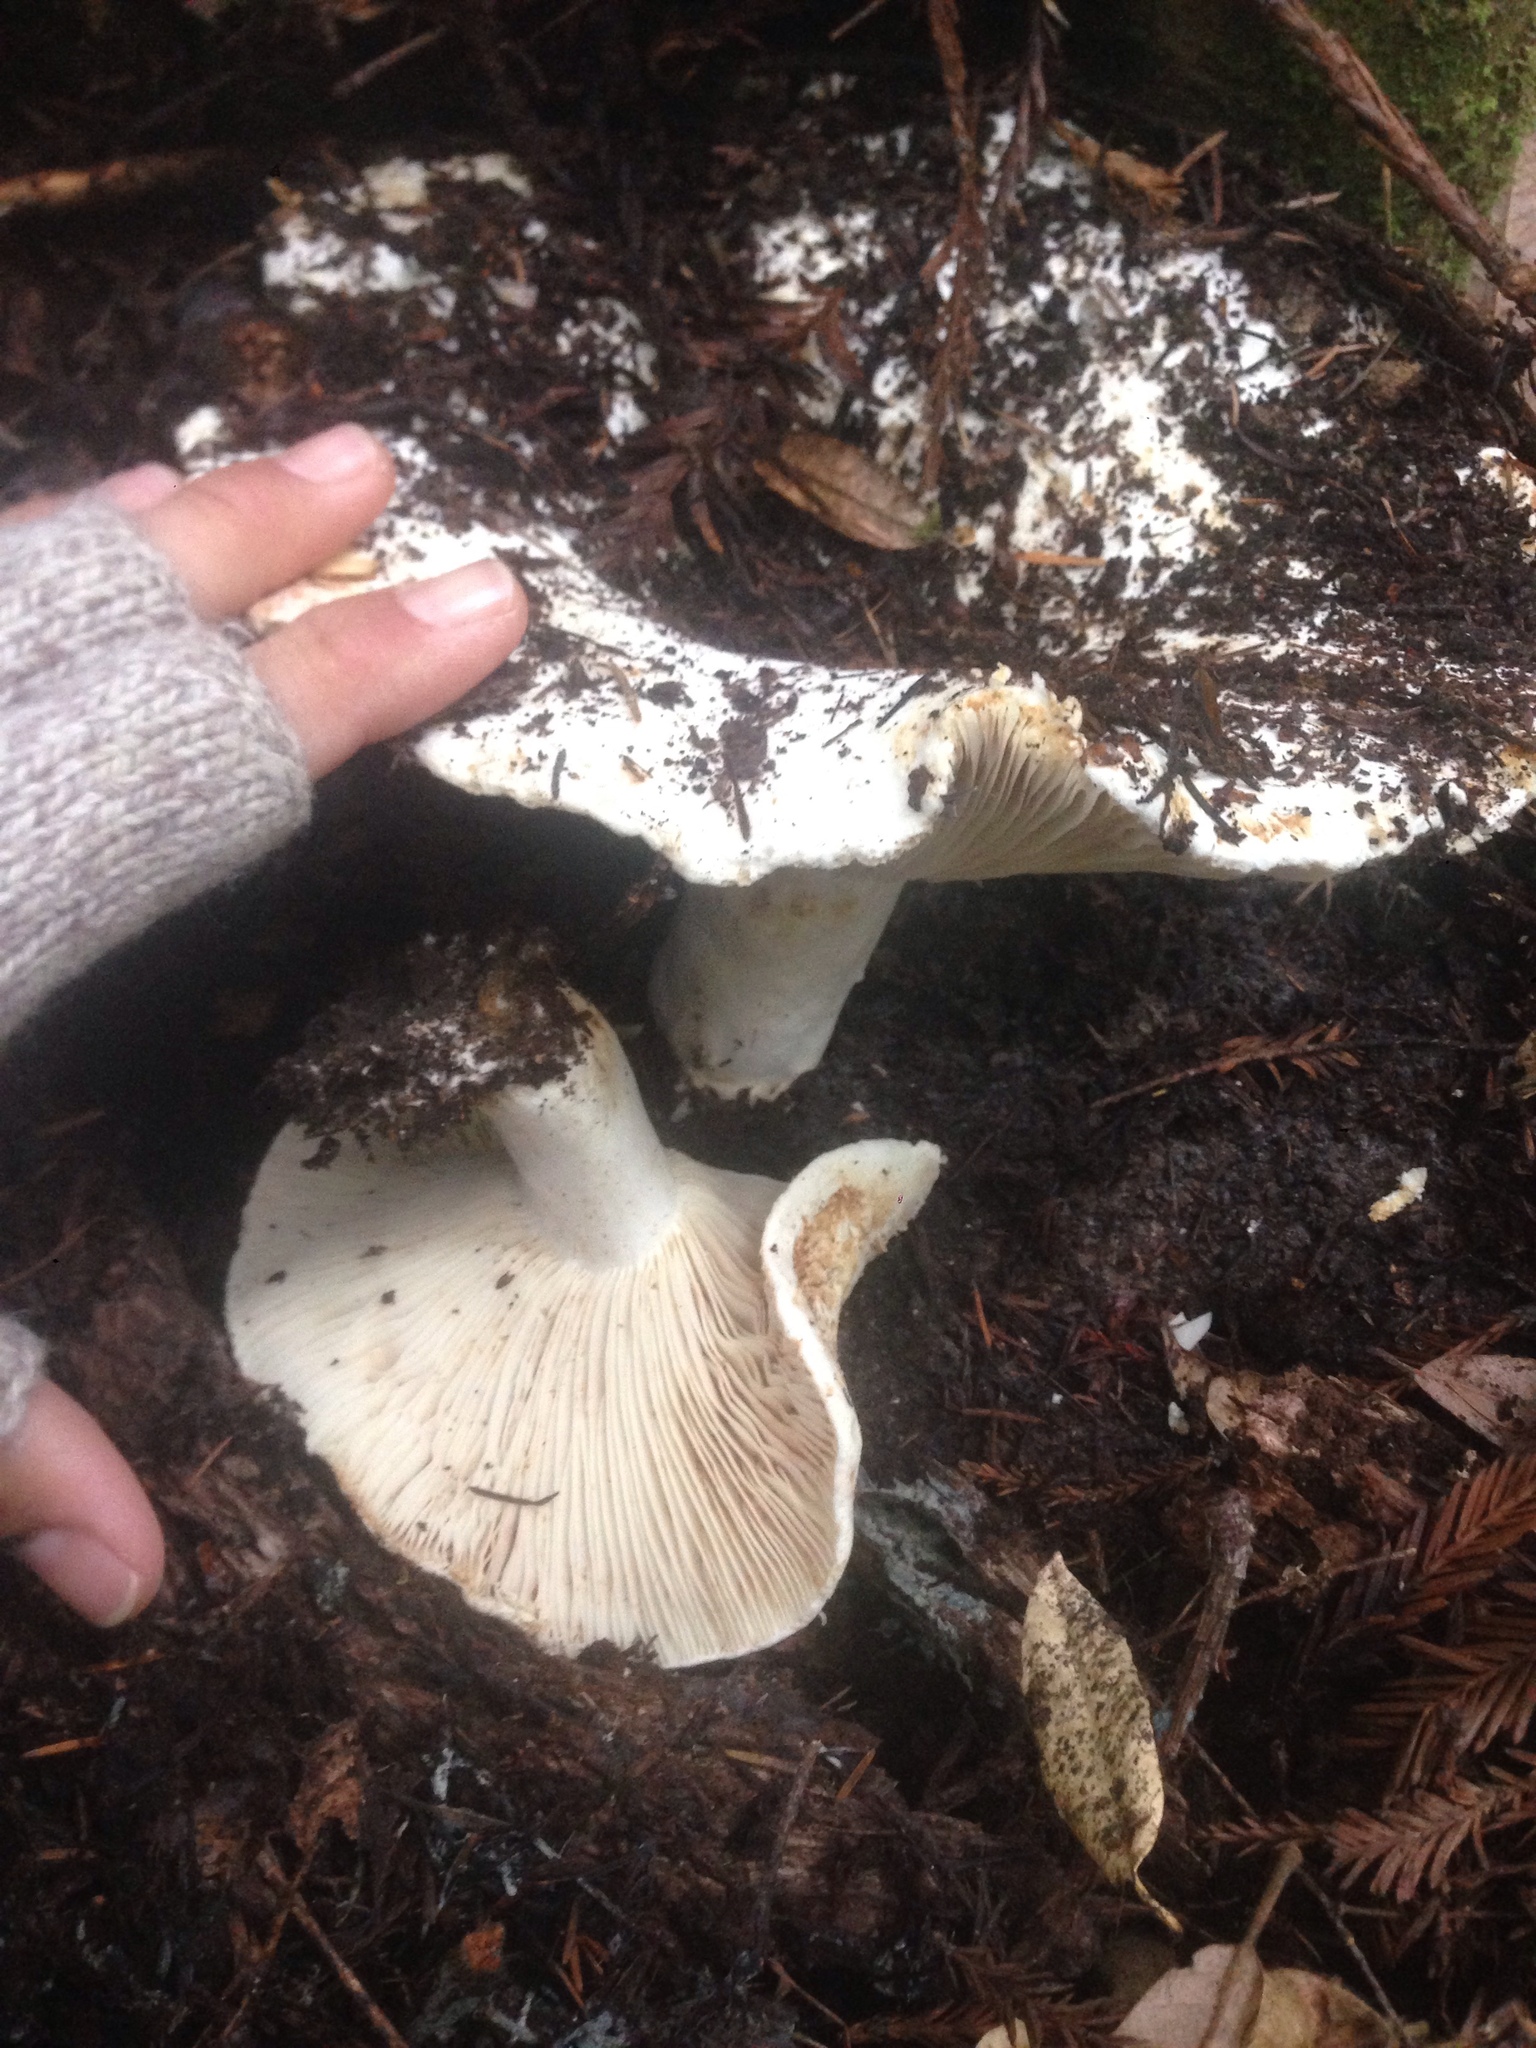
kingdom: Fungi
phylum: Basidiomycota
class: Agaricomycetes
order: Russulales
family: Russulaceae
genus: Russula
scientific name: Russula brevipes
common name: Short-stemmed russula
